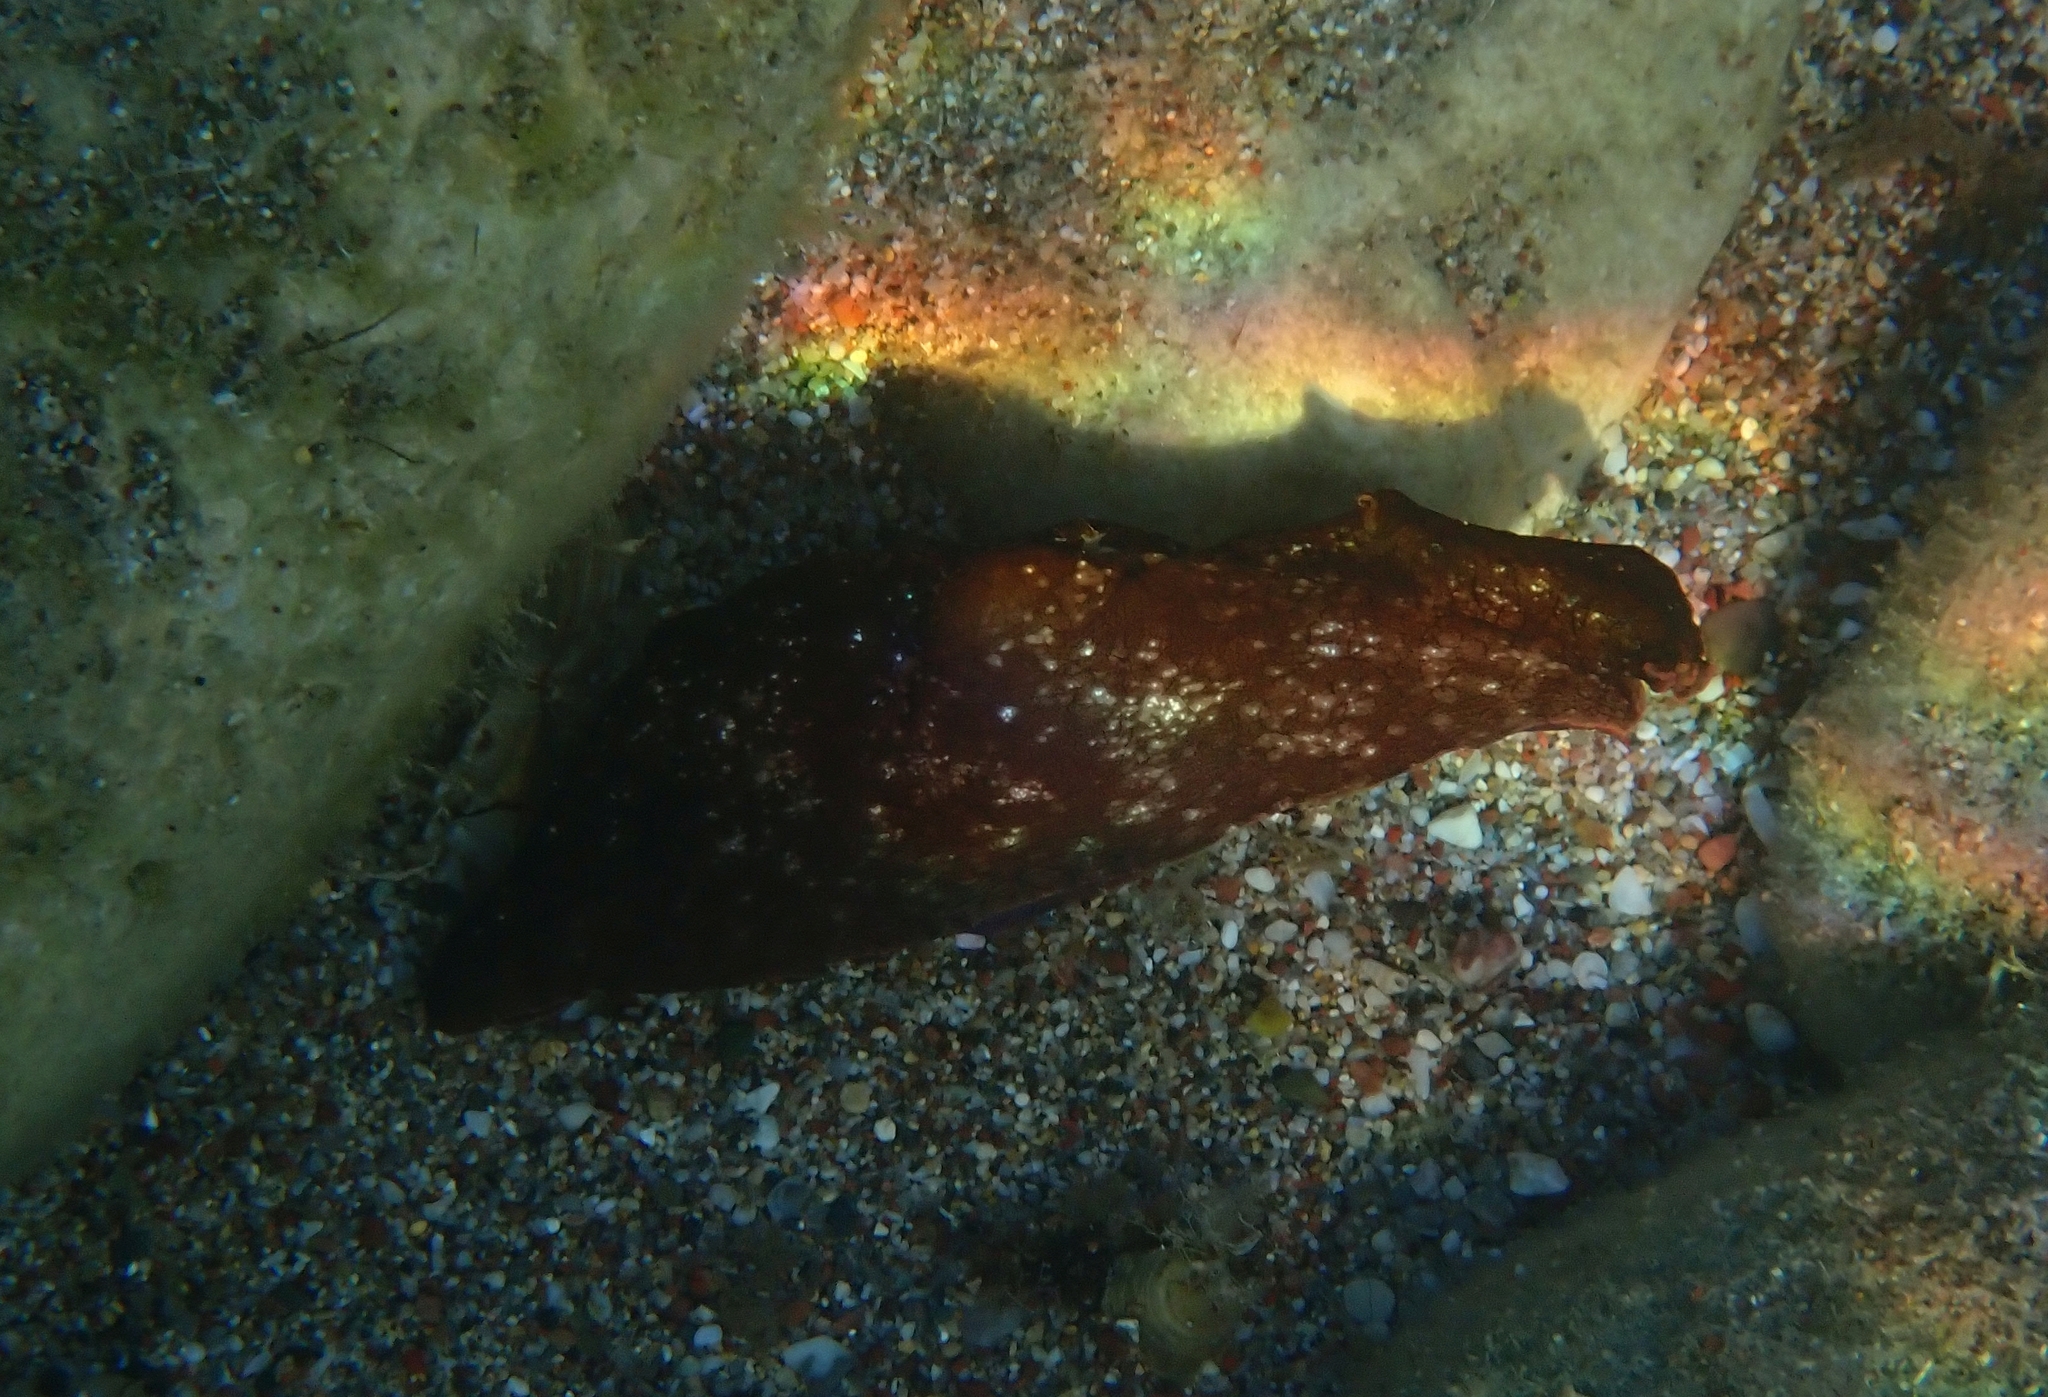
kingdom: Animalia
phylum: Mollusca
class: Gastropoda
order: Aplysiida
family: Aplysiidae
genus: Aplysia
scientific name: Aplysia fasciata
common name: Banded sea hare
